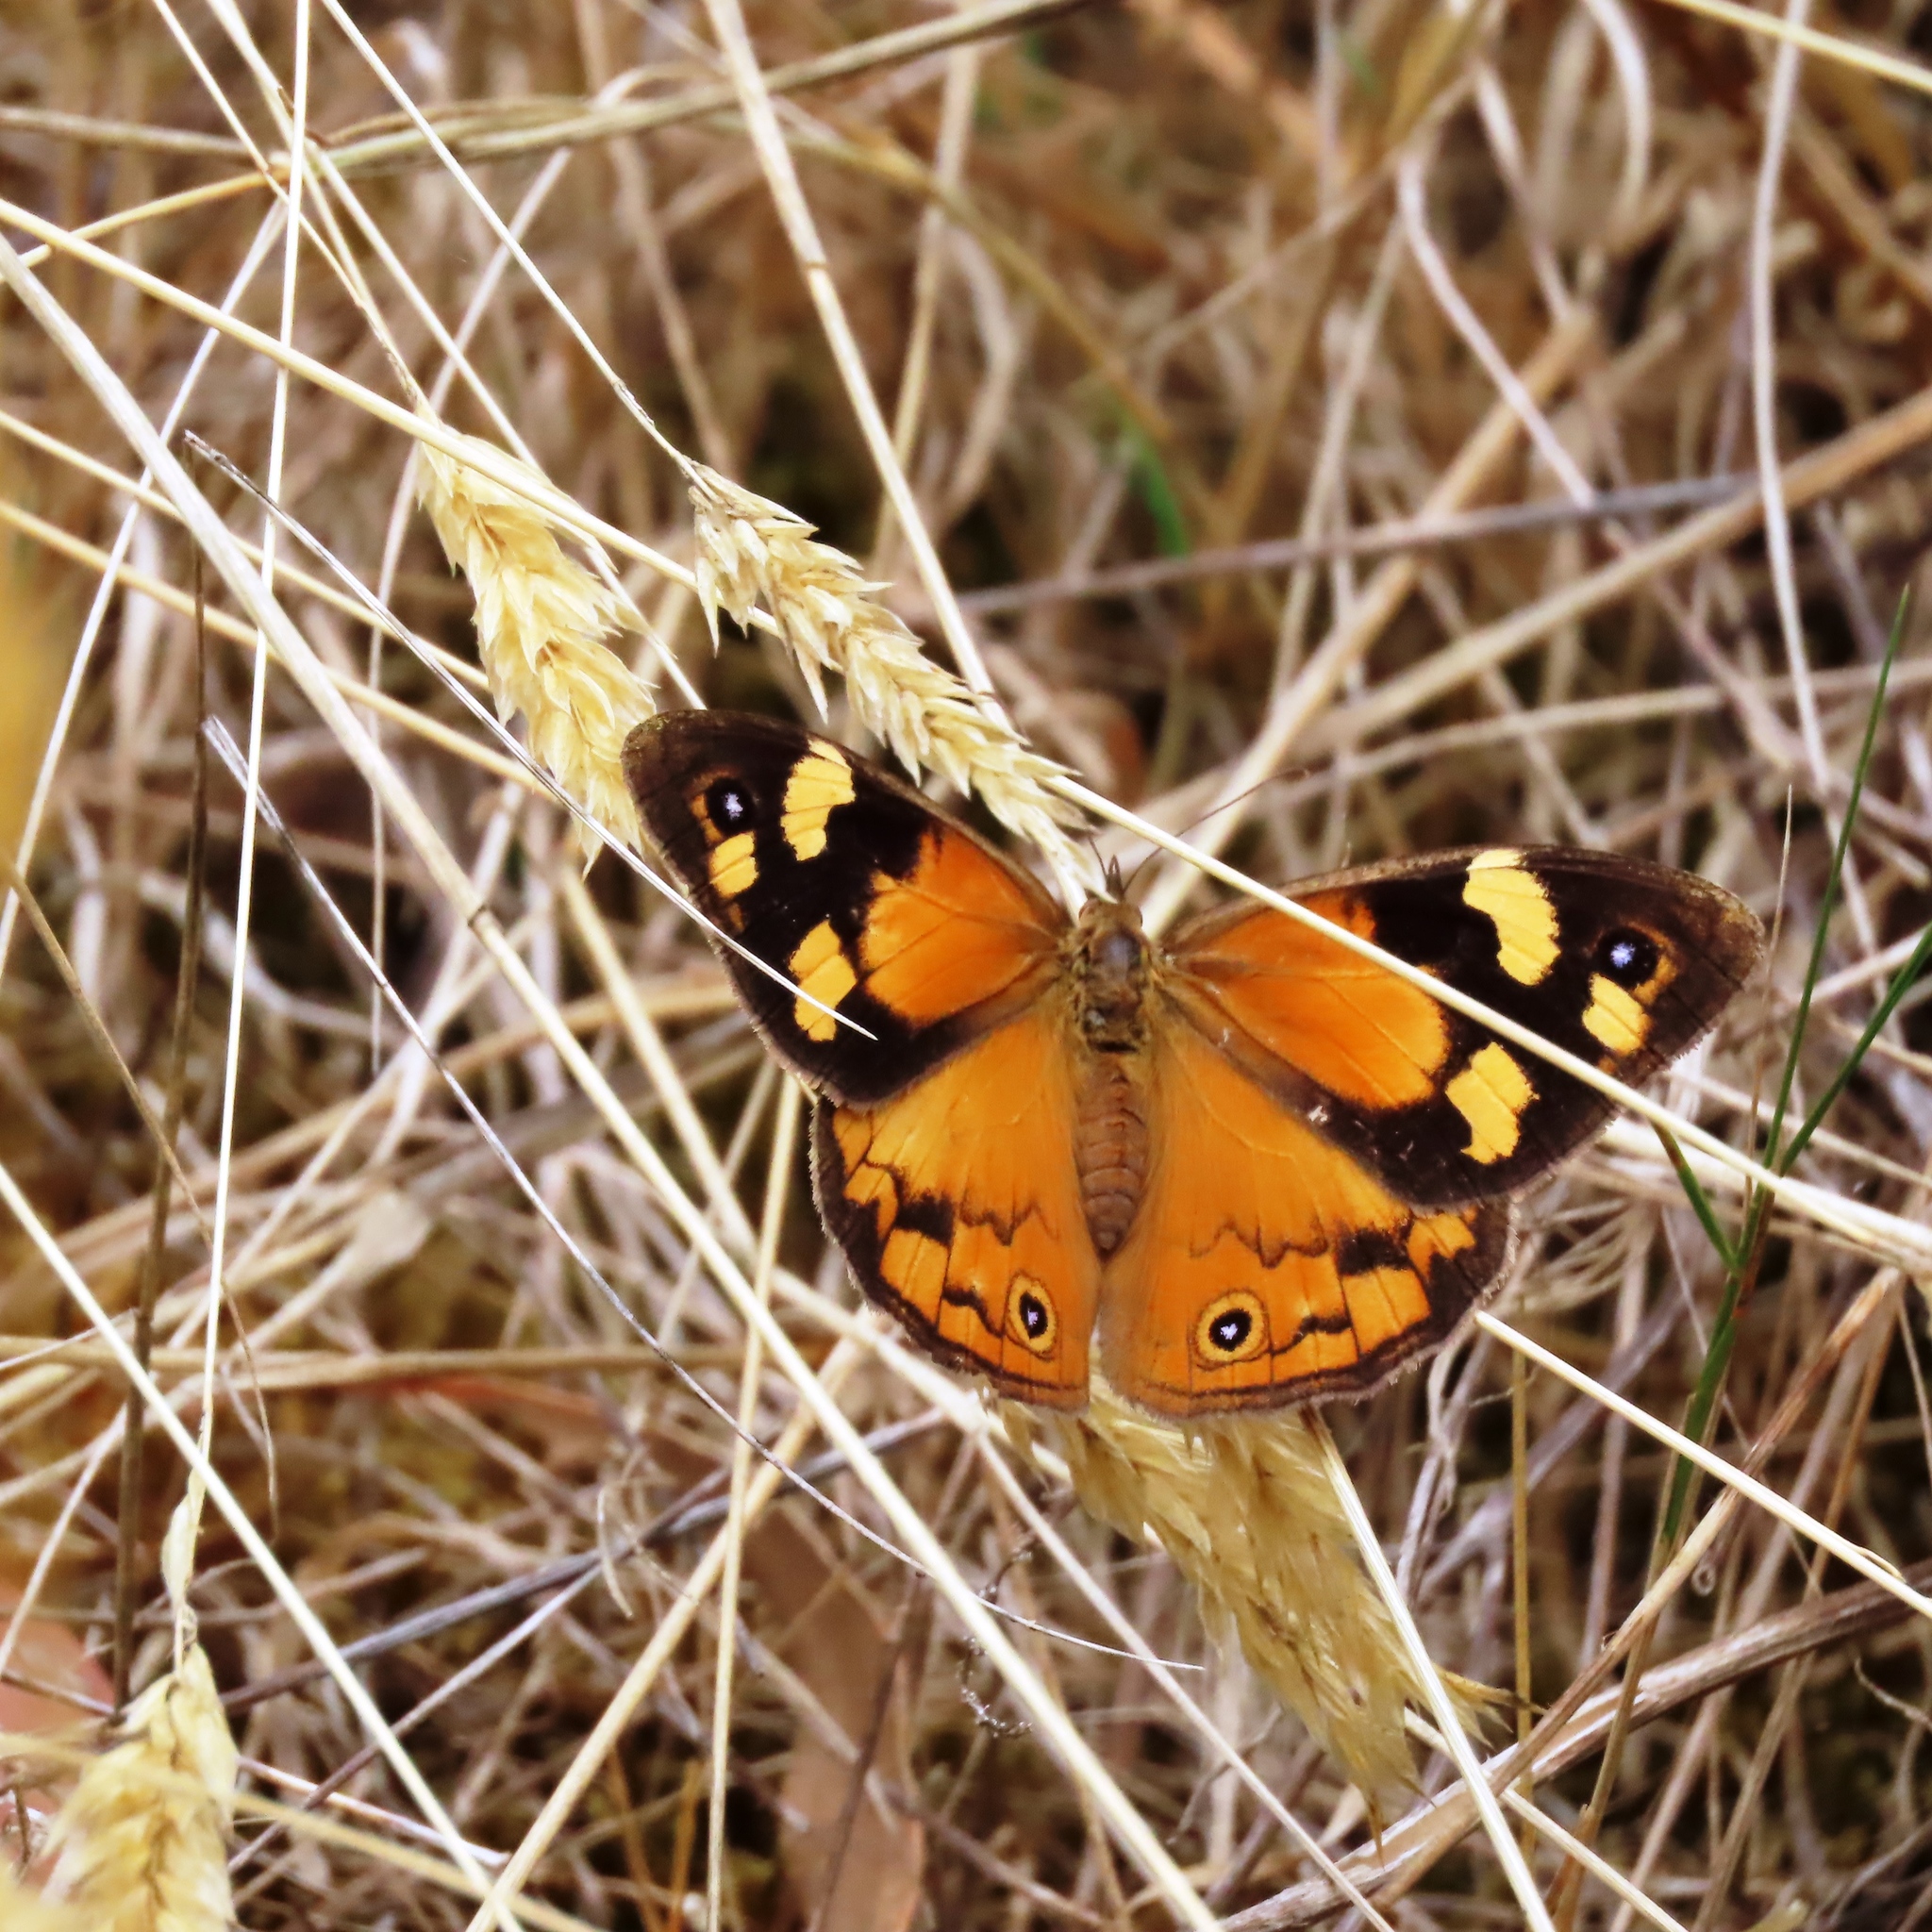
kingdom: Animalia
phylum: Arthropoda
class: Insecta
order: Lepidoptera
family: Nymphalidae
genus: Heteronympha
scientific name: Heteronympha merope
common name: Common brown
